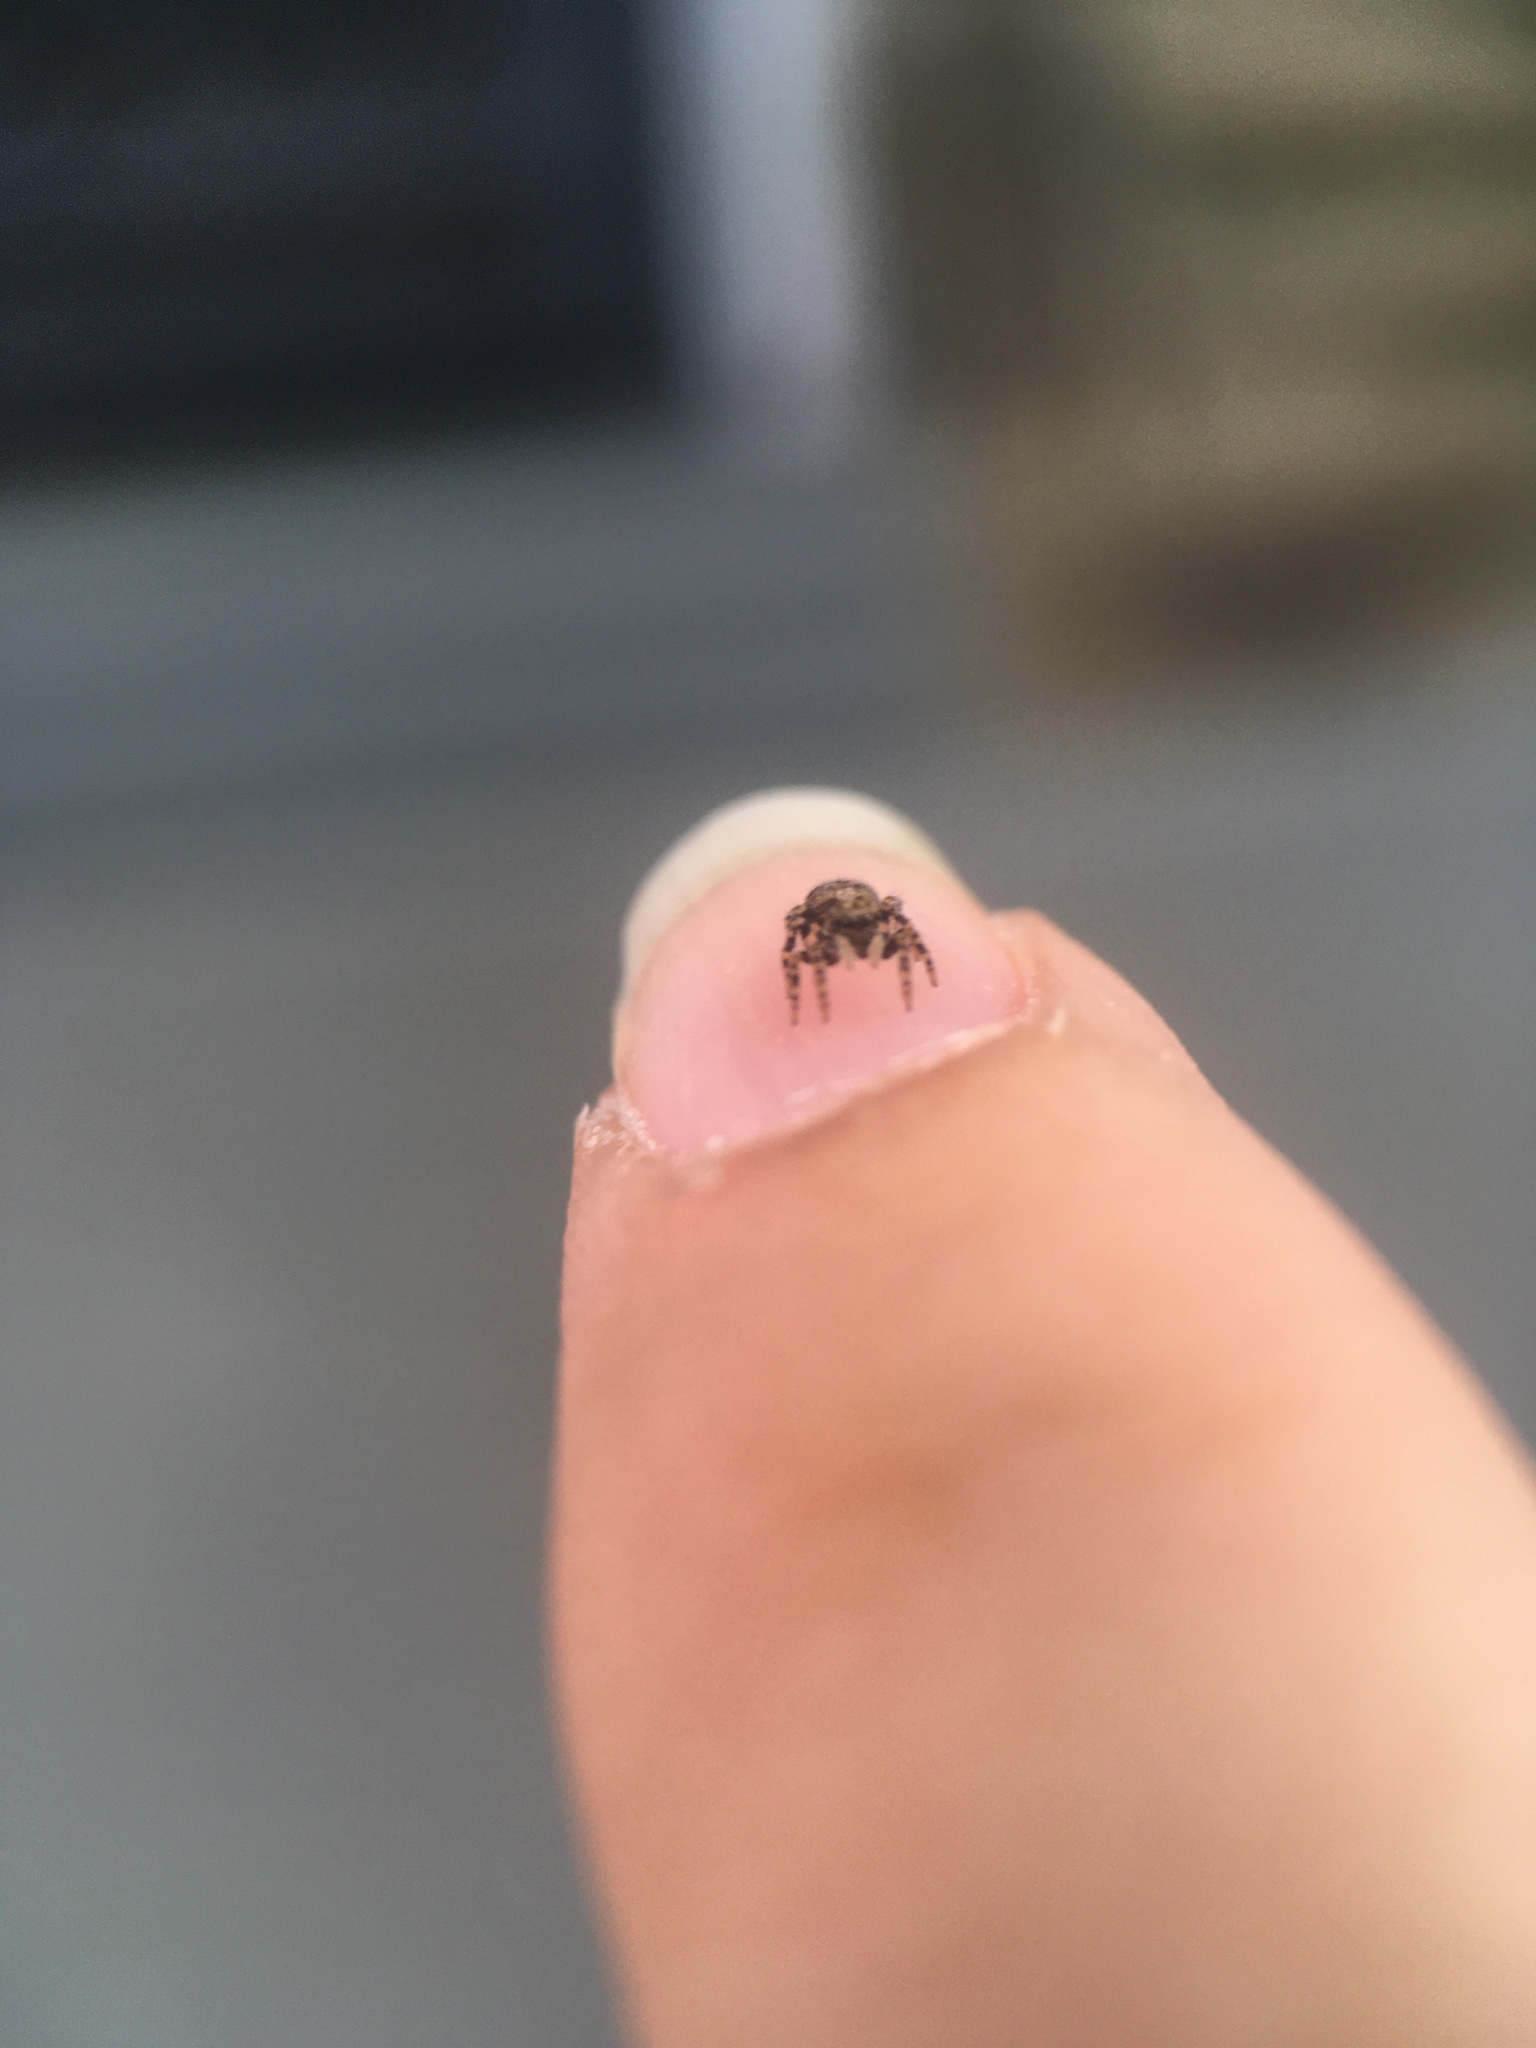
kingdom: Animalia
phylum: Arthropoda
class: Arachnida
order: Araneae
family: Salticidae
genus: Pseudeuophrys
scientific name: Pseudeuophrys erratica
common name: Jumping spider
